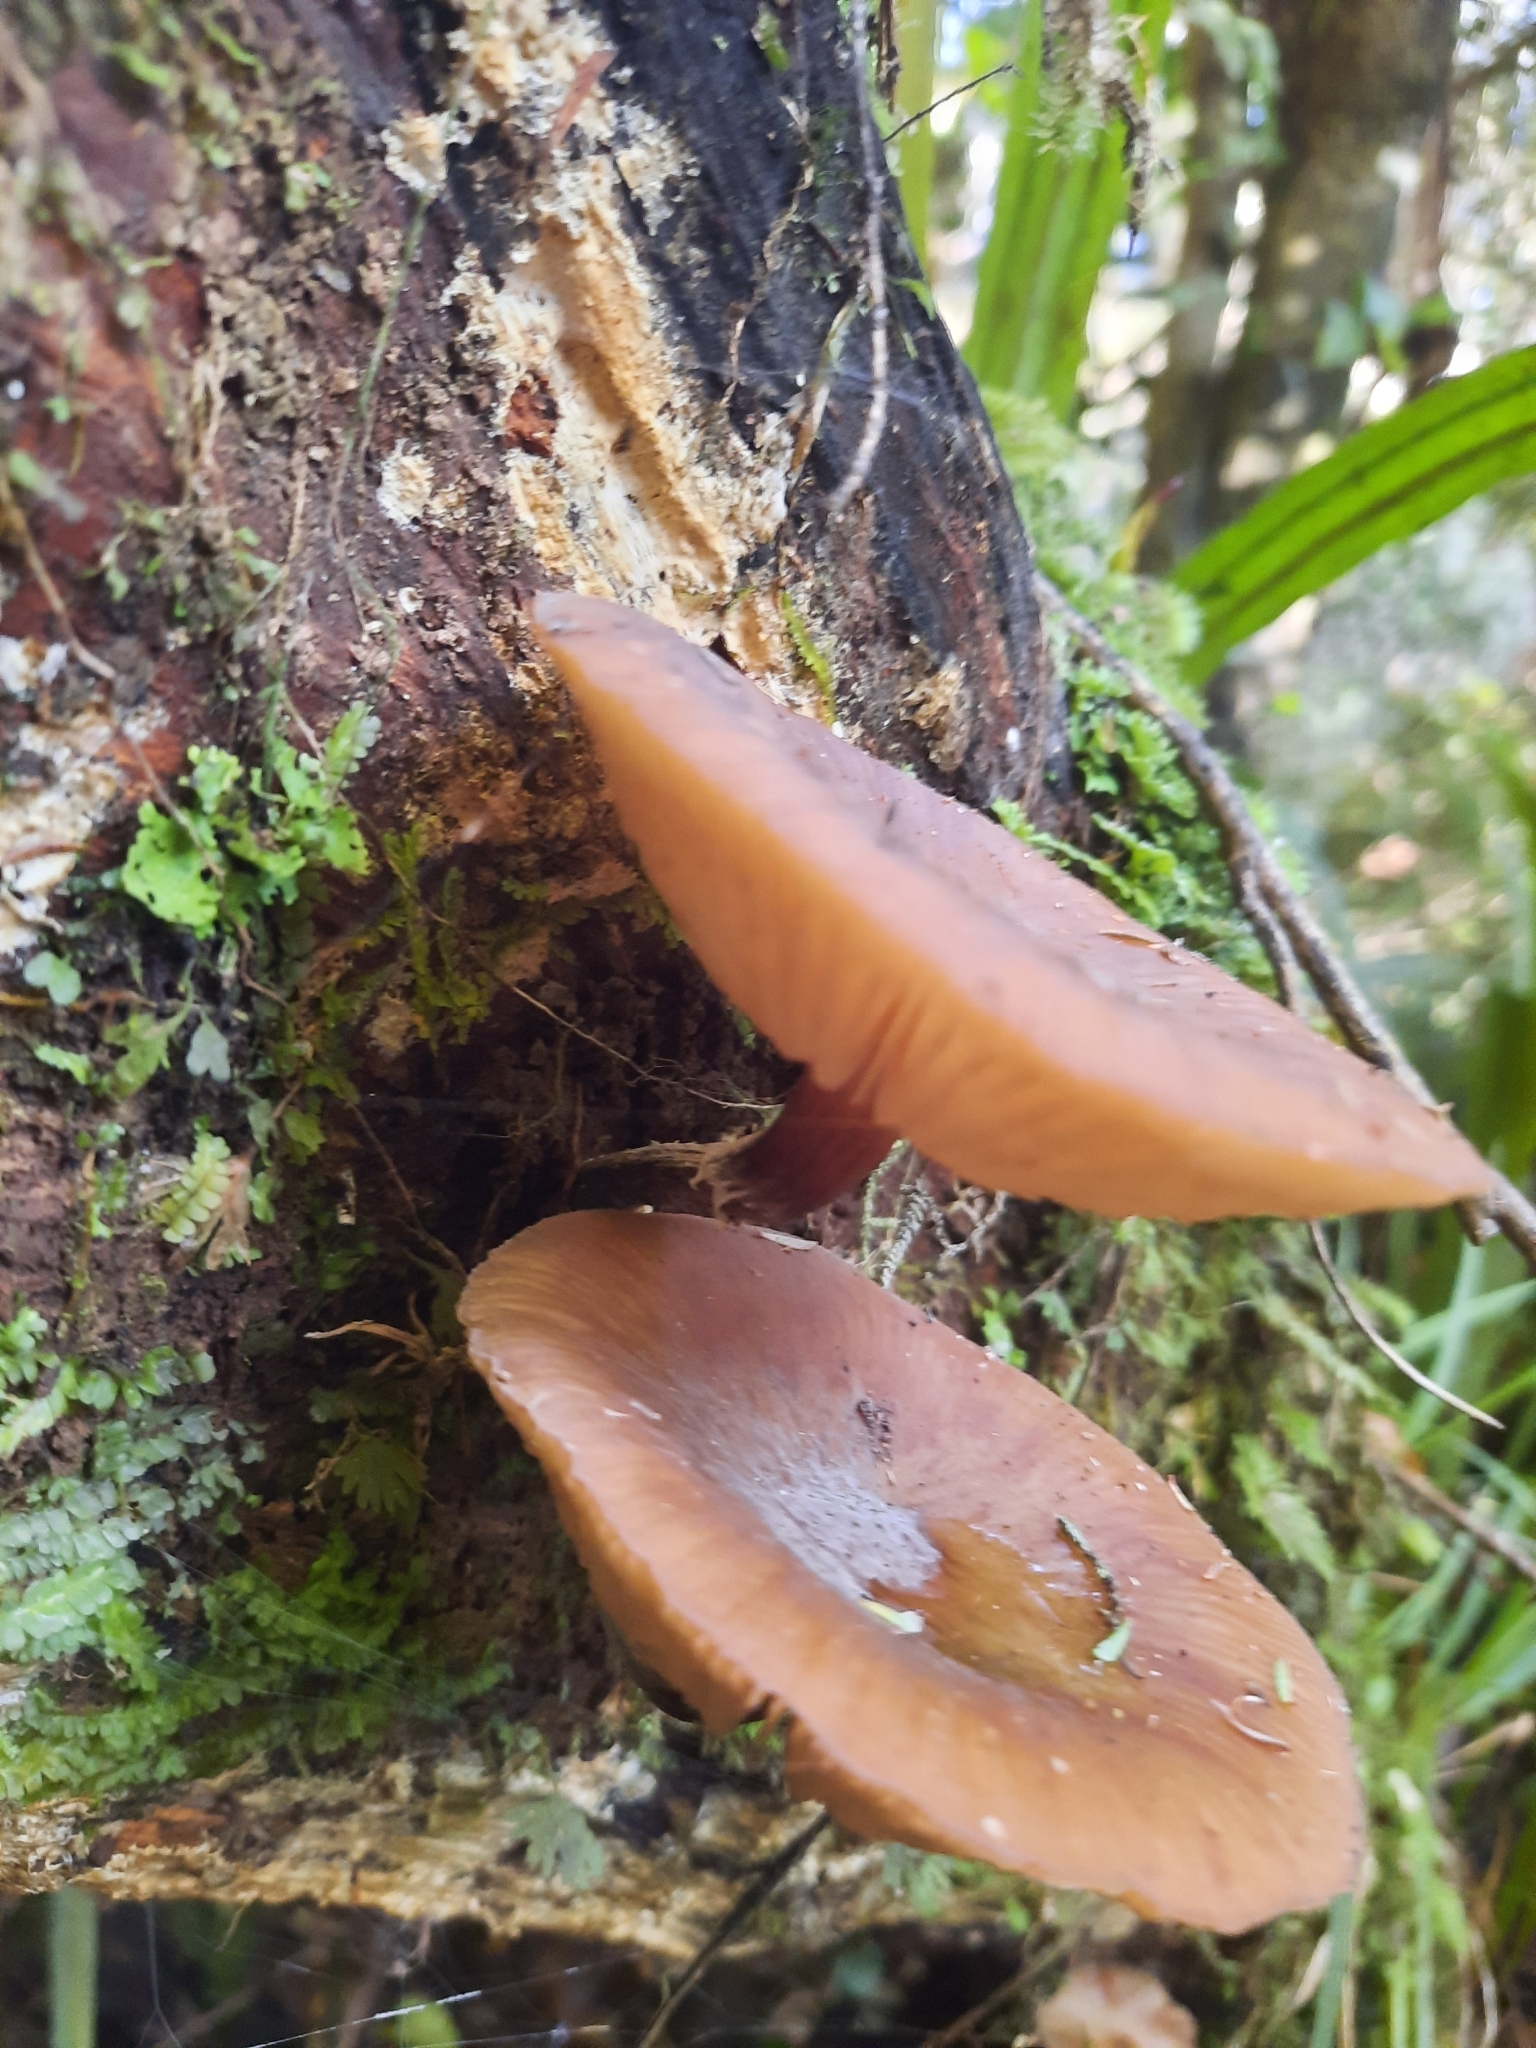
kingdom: Fungi
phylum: Basidiomycota
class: Agaricomycetes
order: Agaricales
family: Physalacriaceae
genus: Armillaria
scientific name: Armillaria novae-zelandiae
